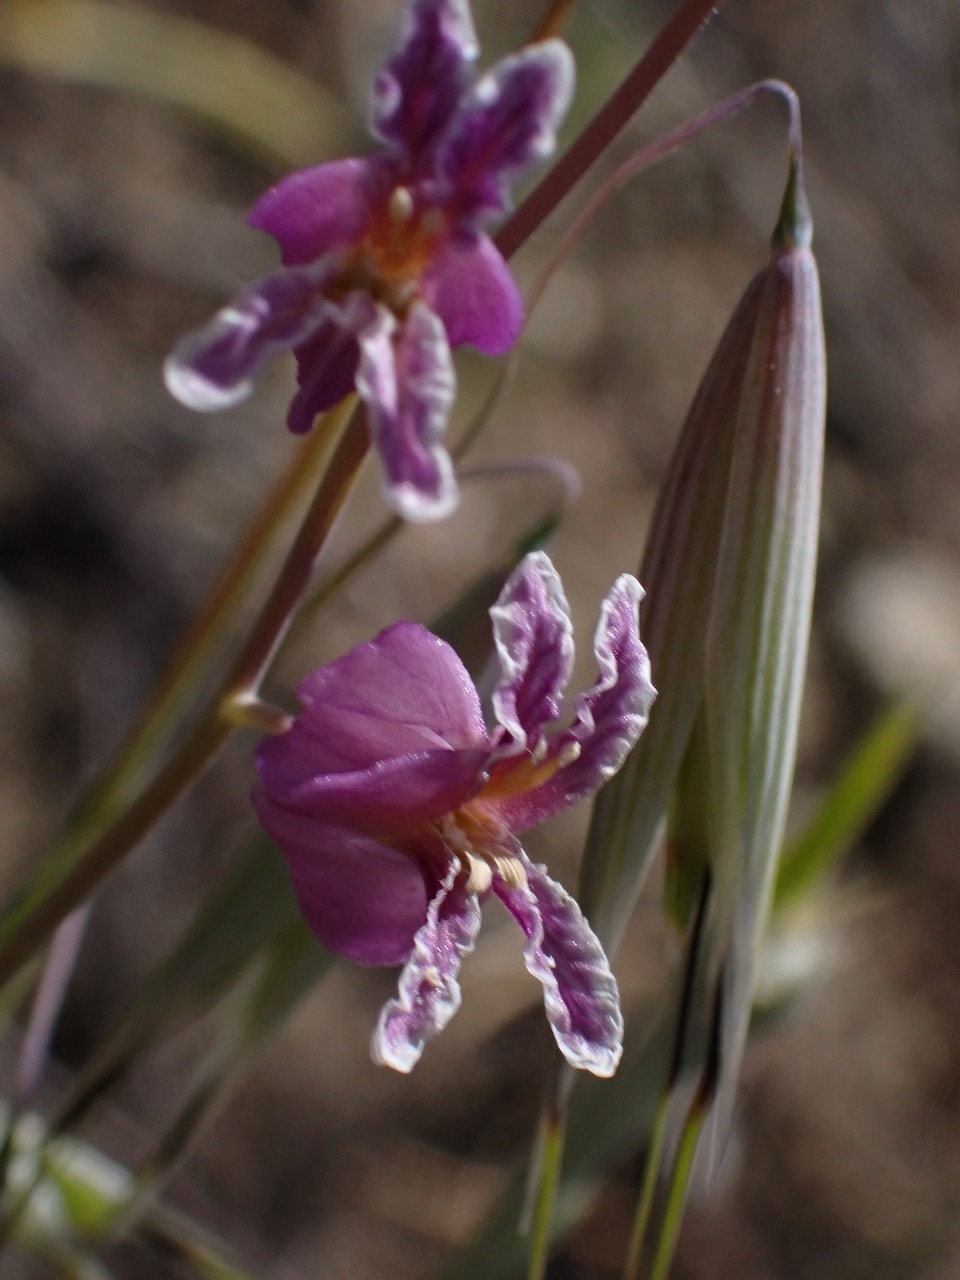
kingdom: Plantae
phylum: Tracheophyta
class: Magnoliopsida
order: Brassicales
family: Brassicaceae
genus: Streptanthus
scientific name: Streptanthus glandulosus
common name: Jewel-flower
